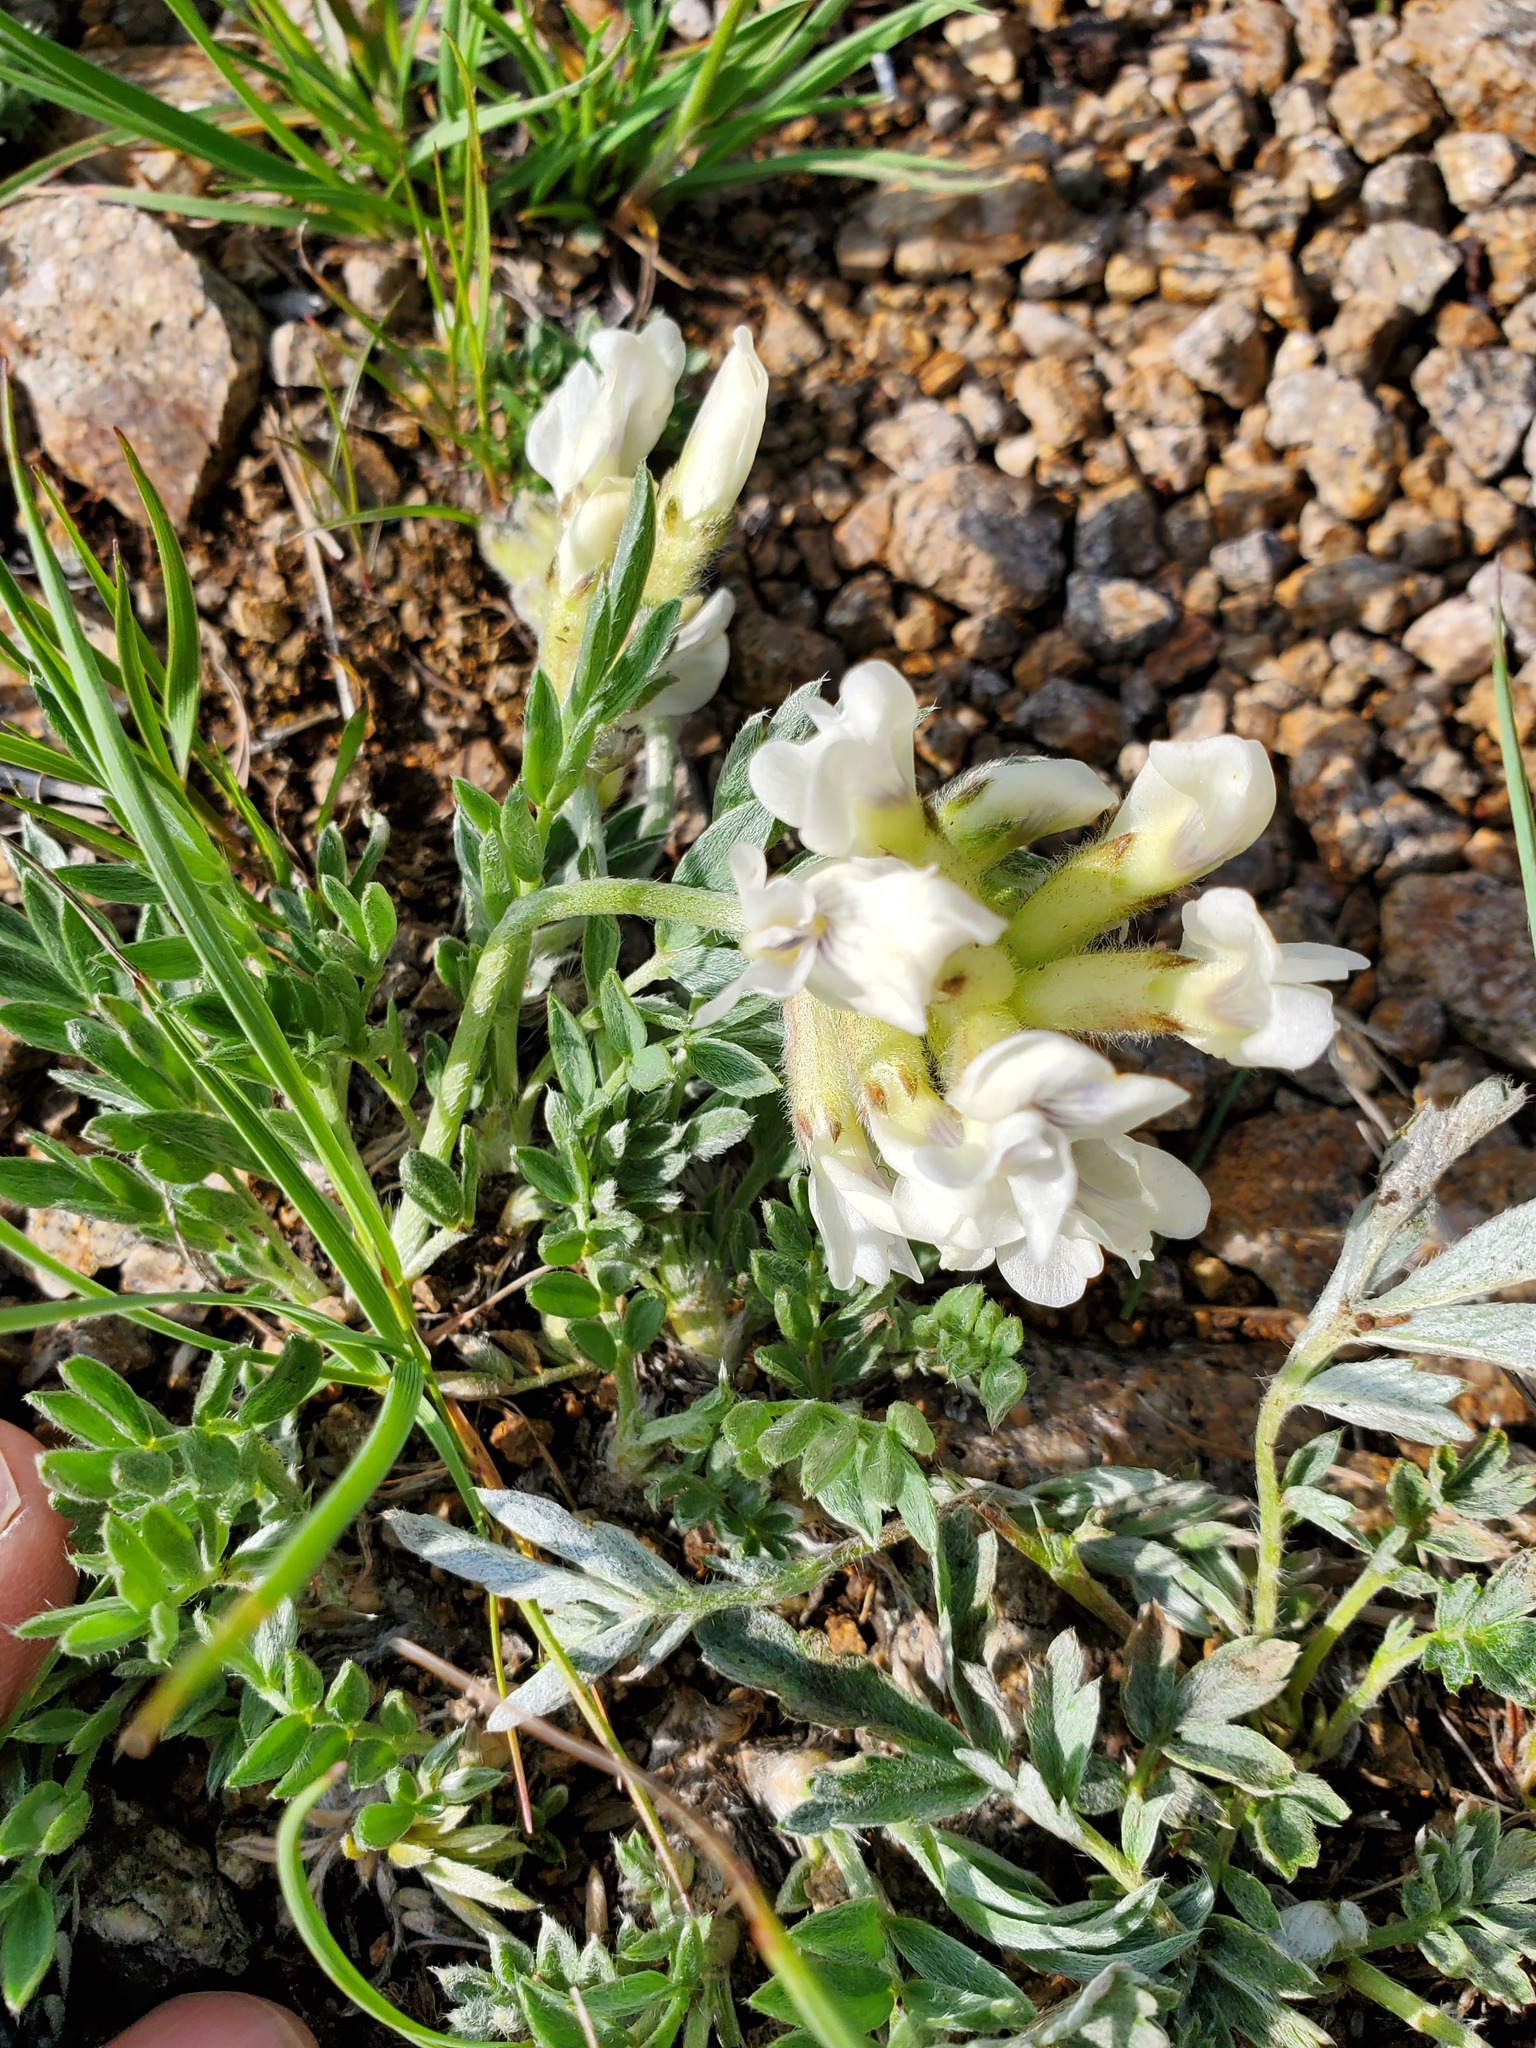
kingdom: Plantae
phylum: Tracheophyta
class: Magnoliopsida
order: Fabales
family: Fabaceae
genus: Oxytropis
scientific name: Oxytropis sericea
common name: Silky locoweed
